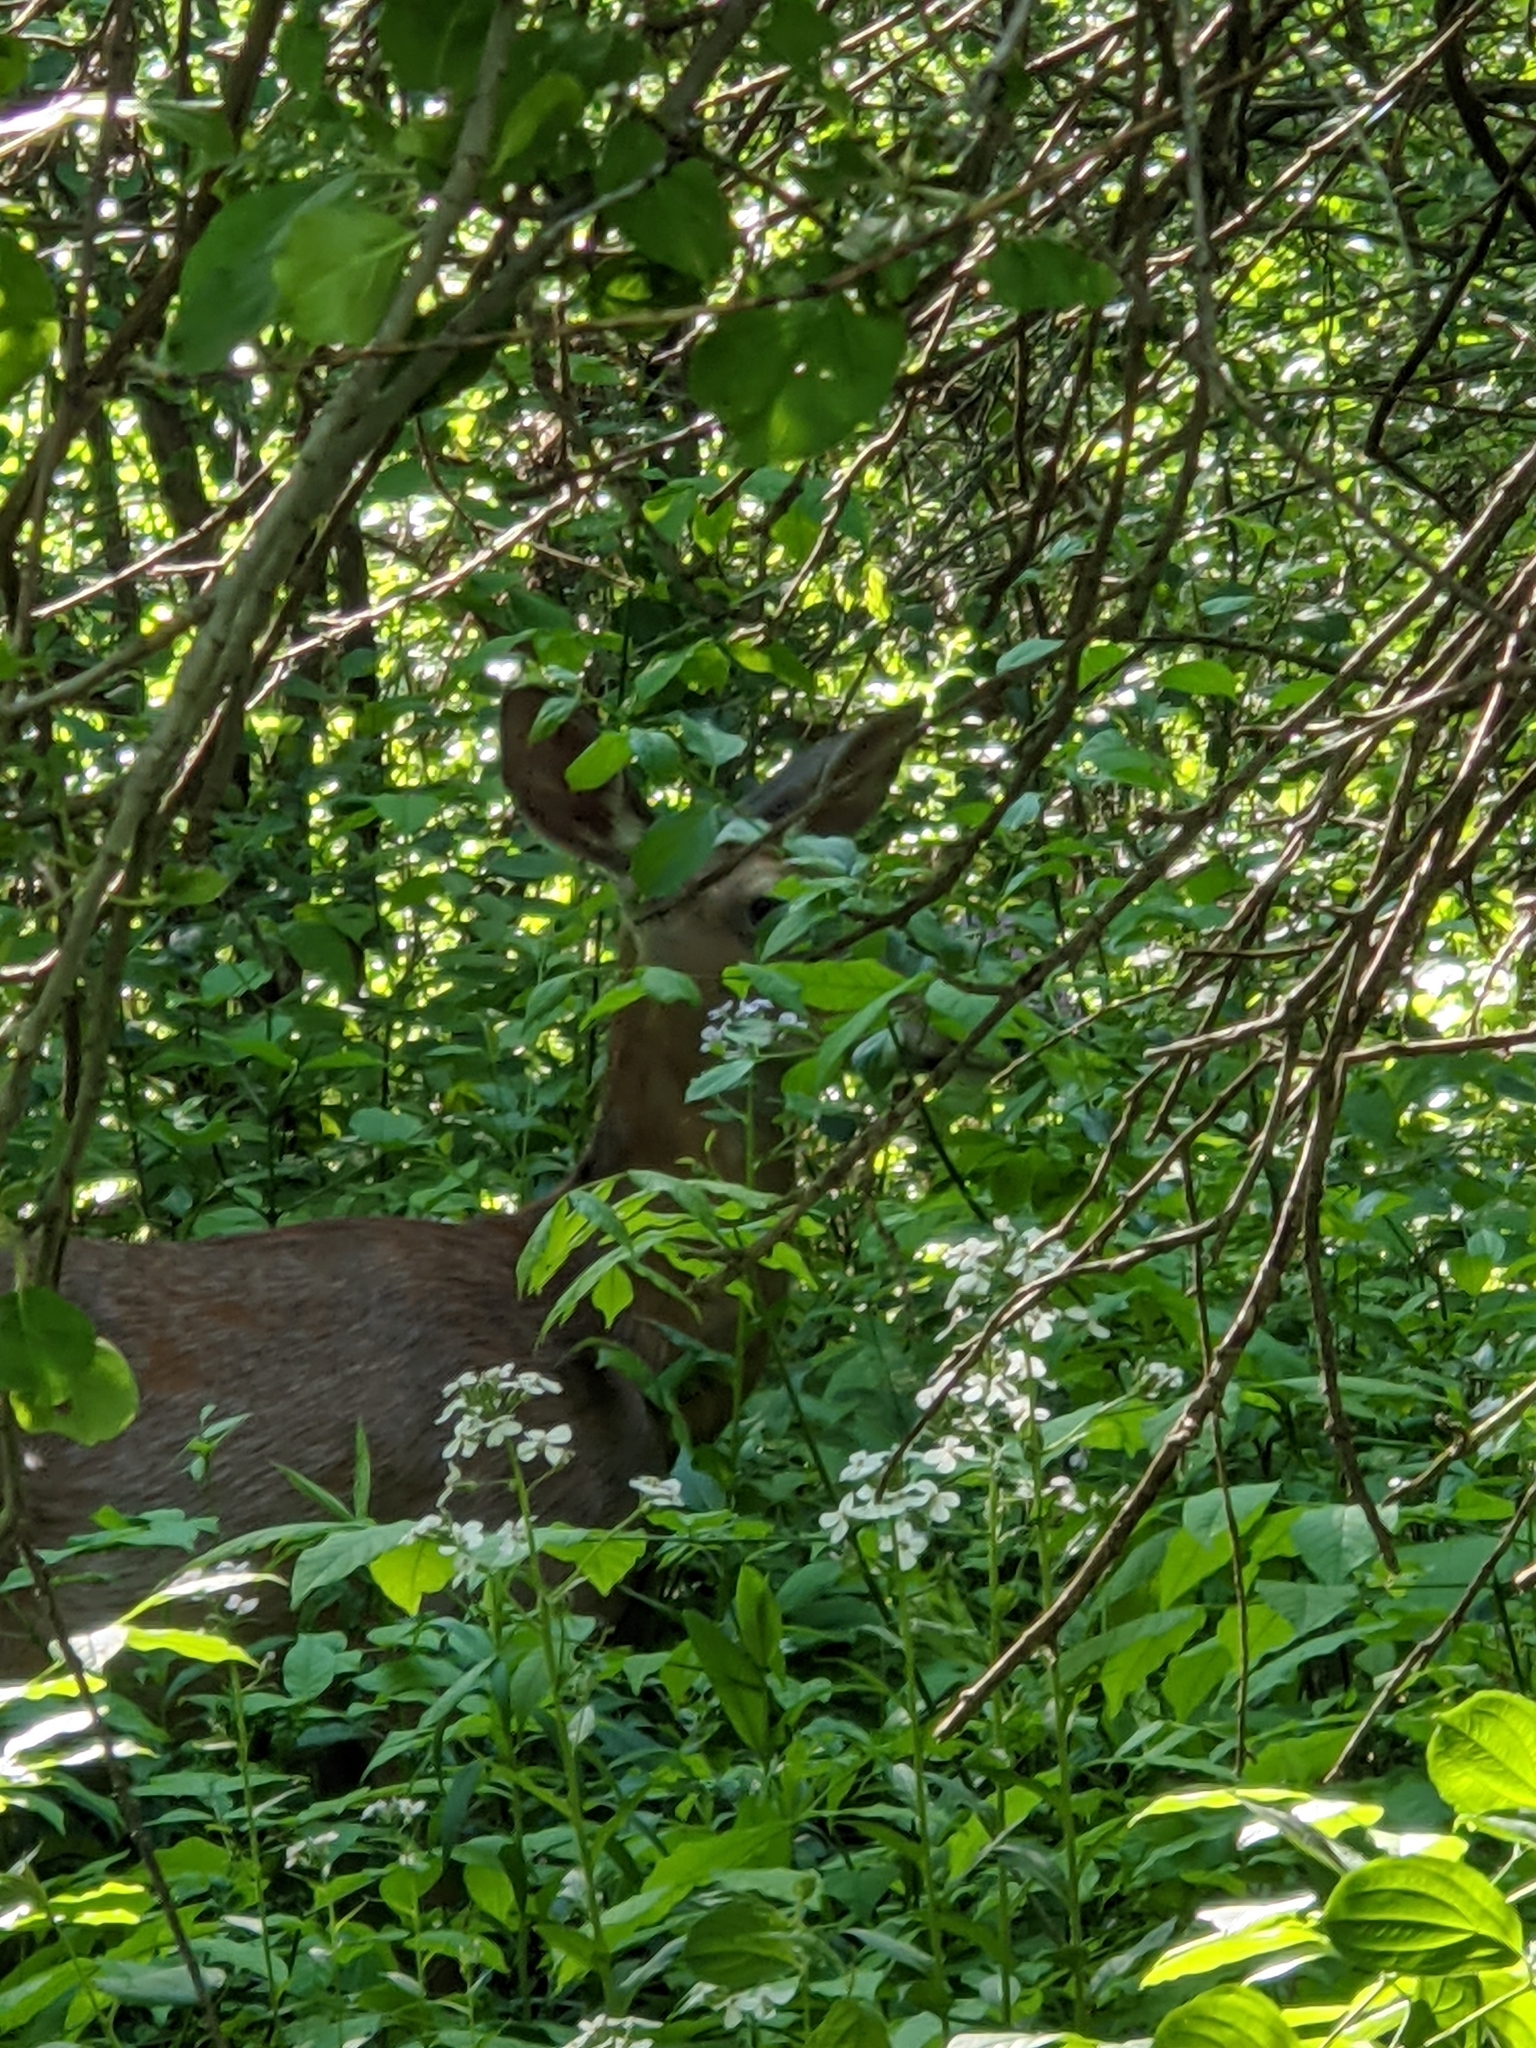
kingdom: Animalia
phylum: Chordata
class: Mammalia
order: Artiodactyla
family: Cervidae
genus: Odocoileus
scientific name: Odocoileus virginianus
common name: White-tailed deer
